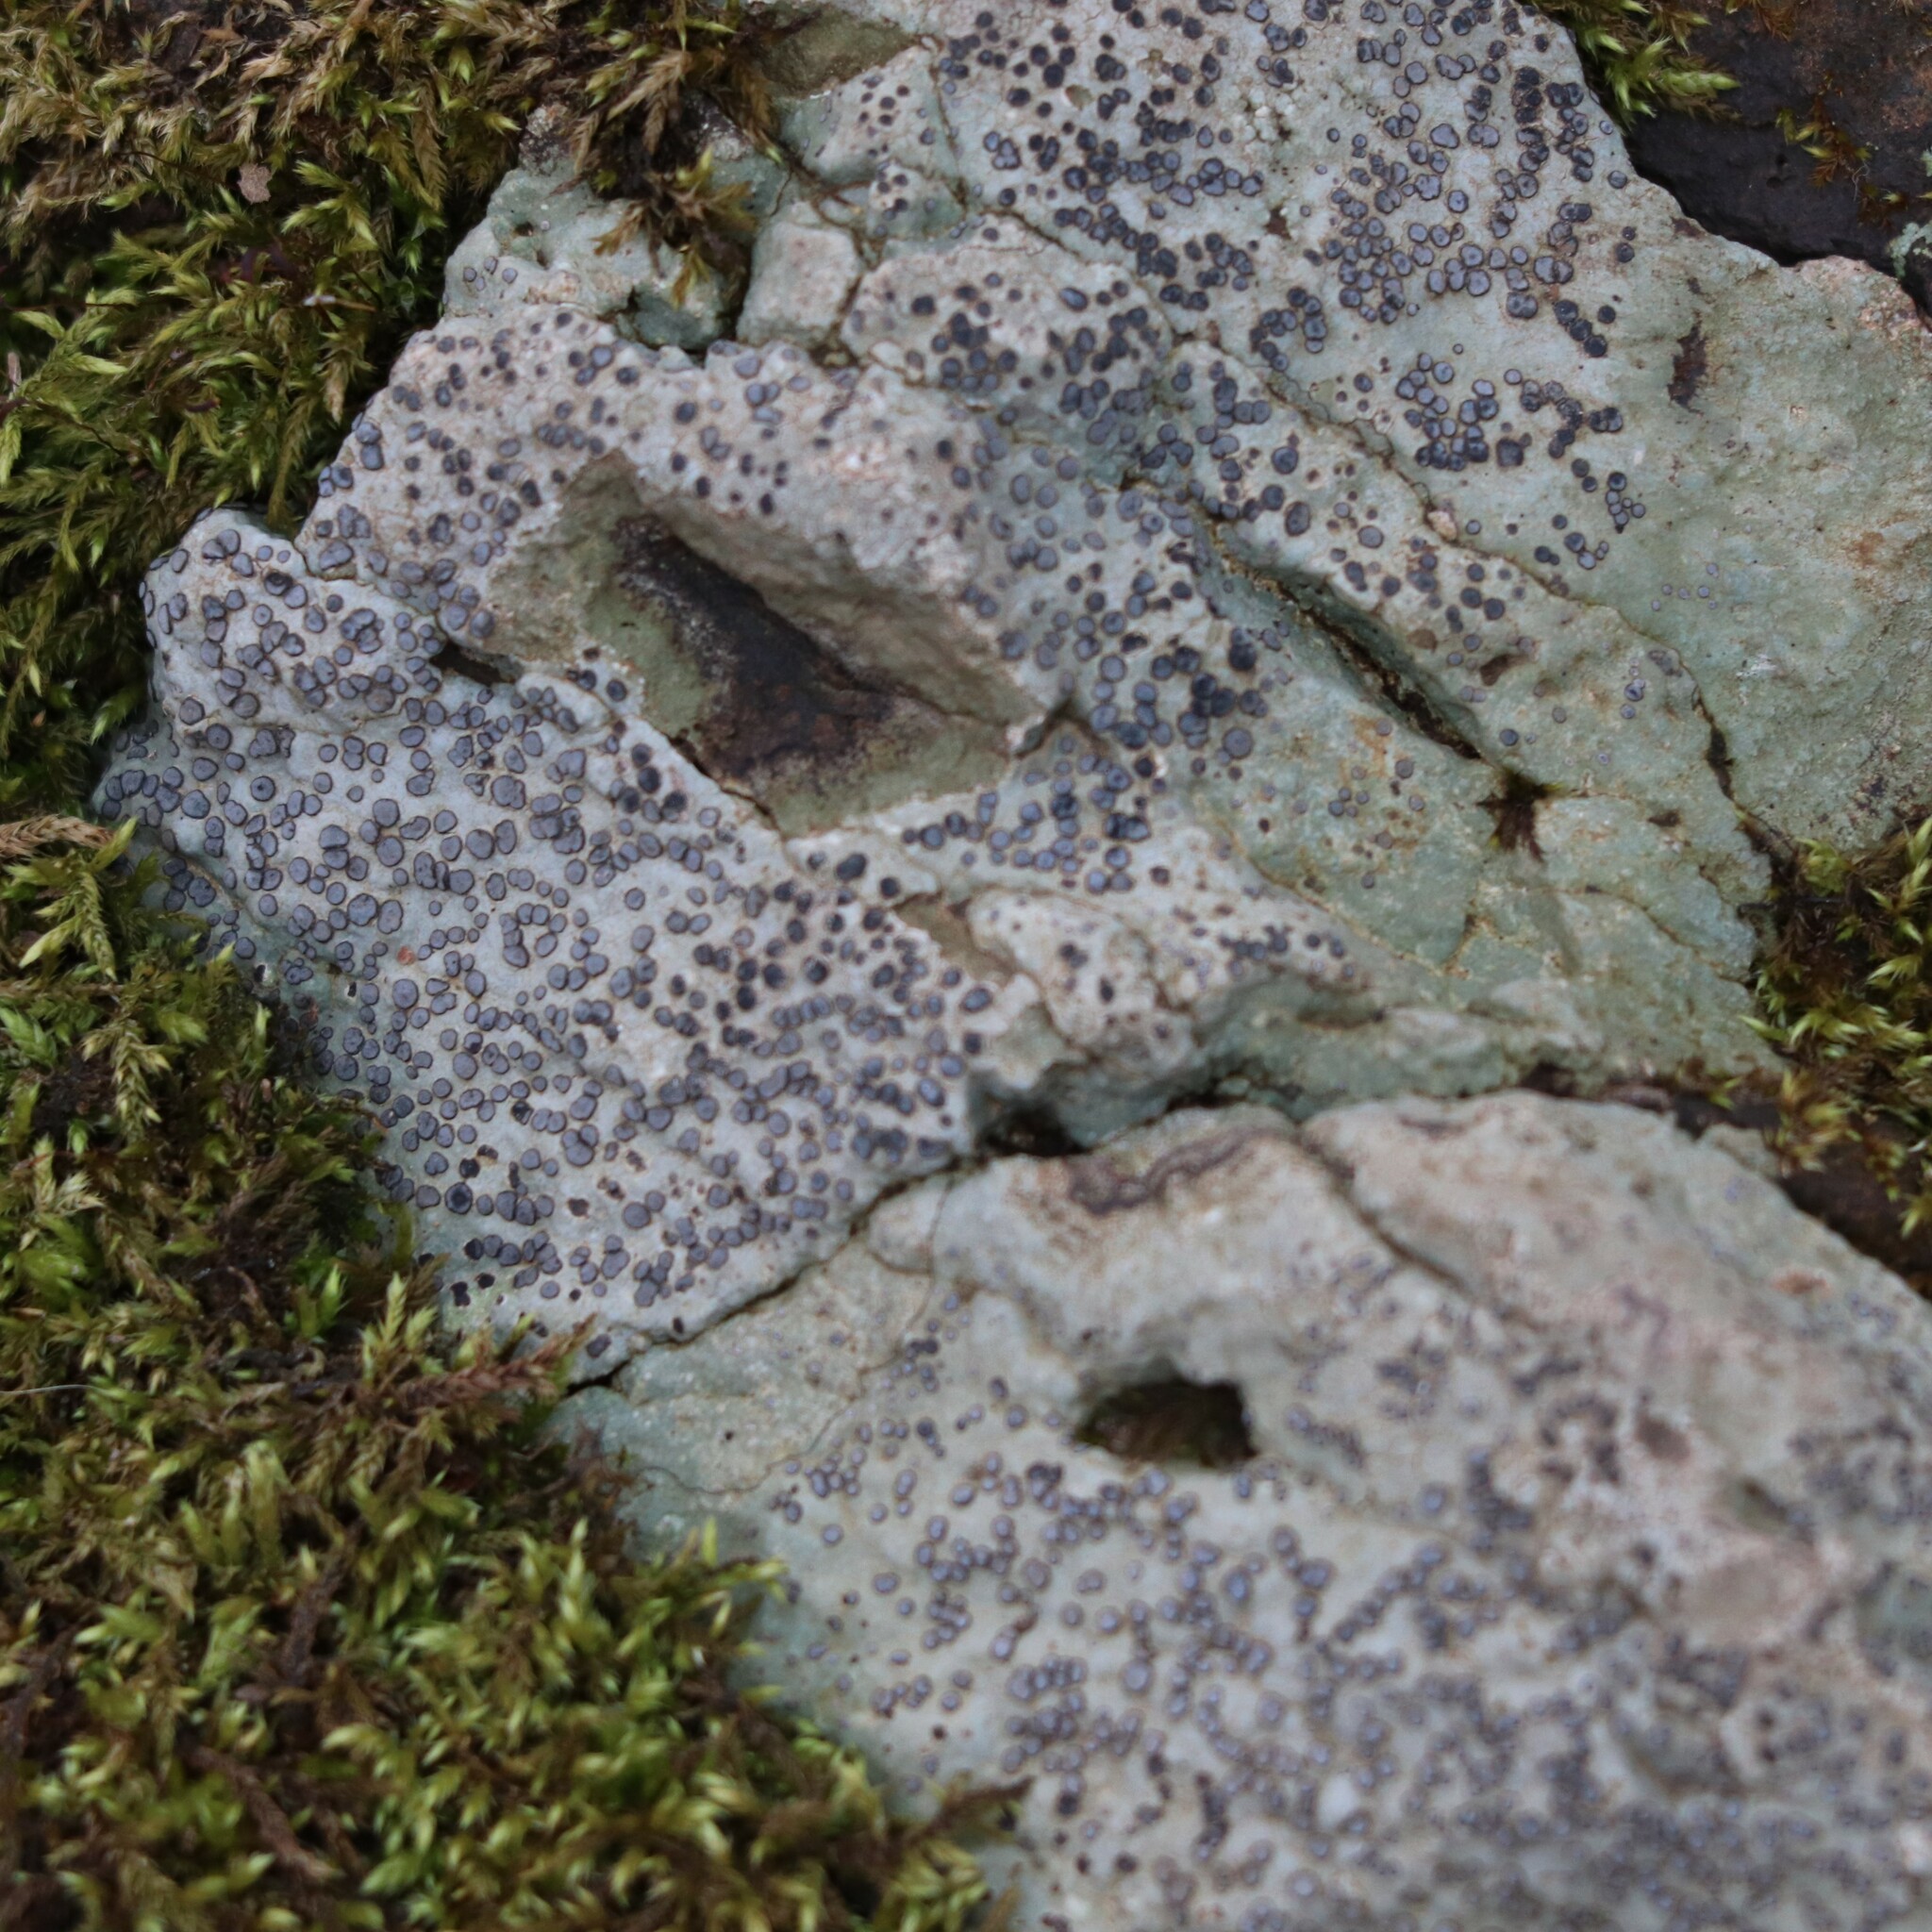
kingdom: Fungi
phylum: Ascomycota
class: Lecanoromycetes
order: Lecideales
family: Lecideaceae
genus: Porpidia
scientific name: Porpidia albocaerulescens
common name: Smokey-eyed boulder lichen
